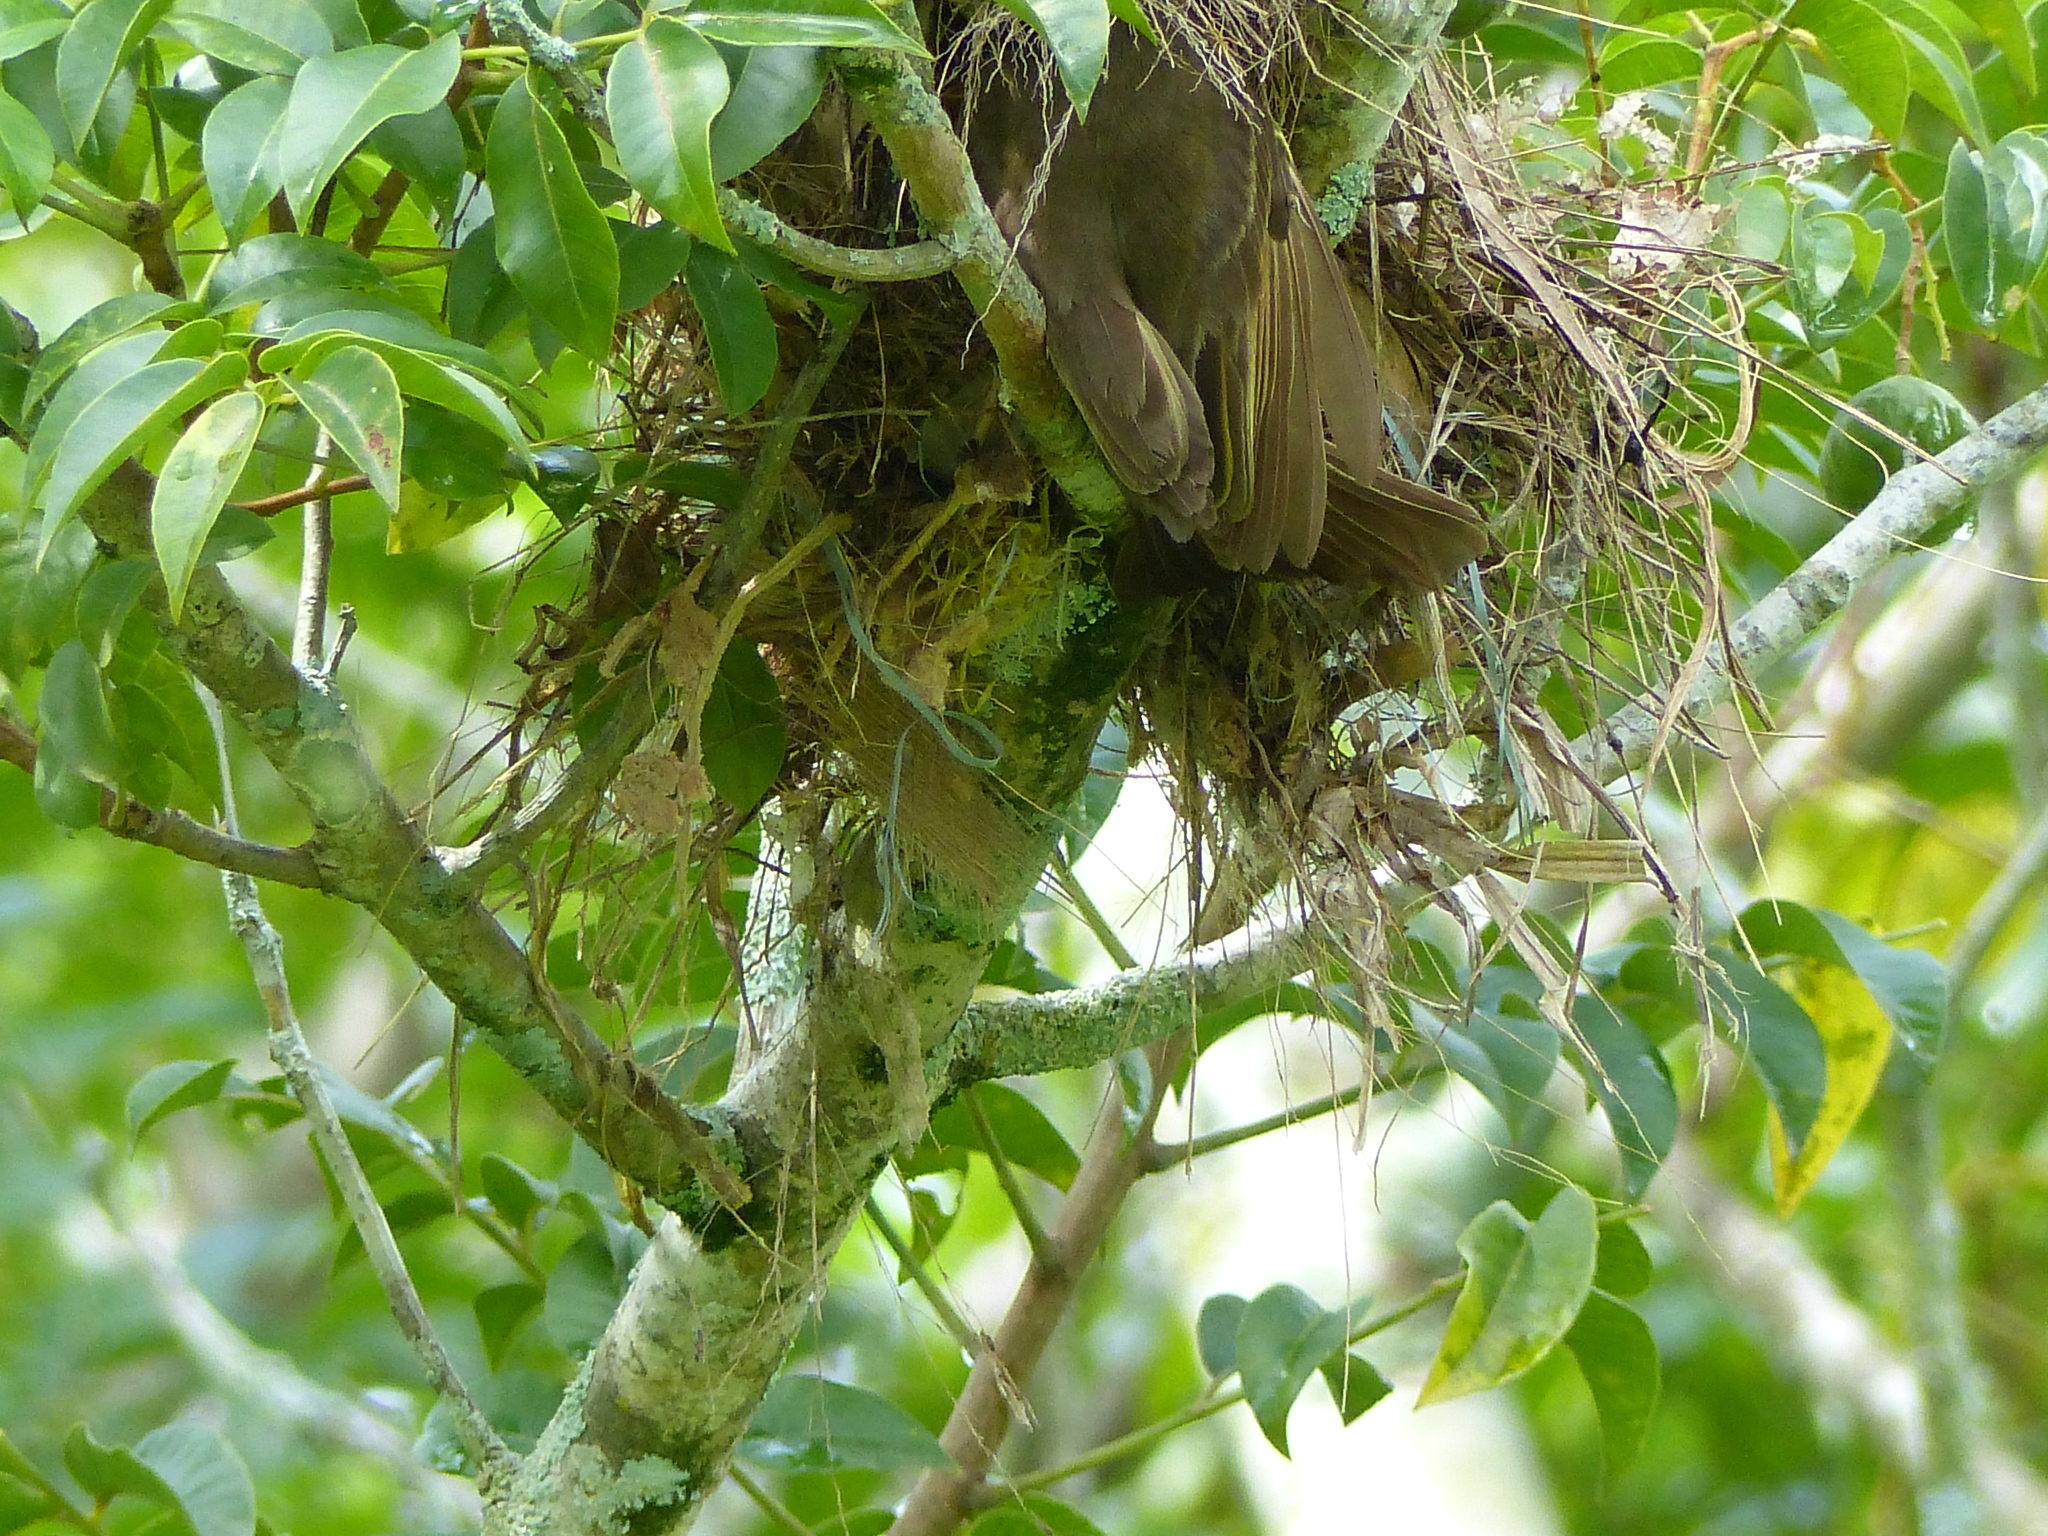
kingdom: Animalia
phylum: Chordata
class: Aves
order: Passeriformes
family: Tyrannidae
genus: Myiozetetes
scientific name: Myiozetetes similis
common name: Social flycatcher
